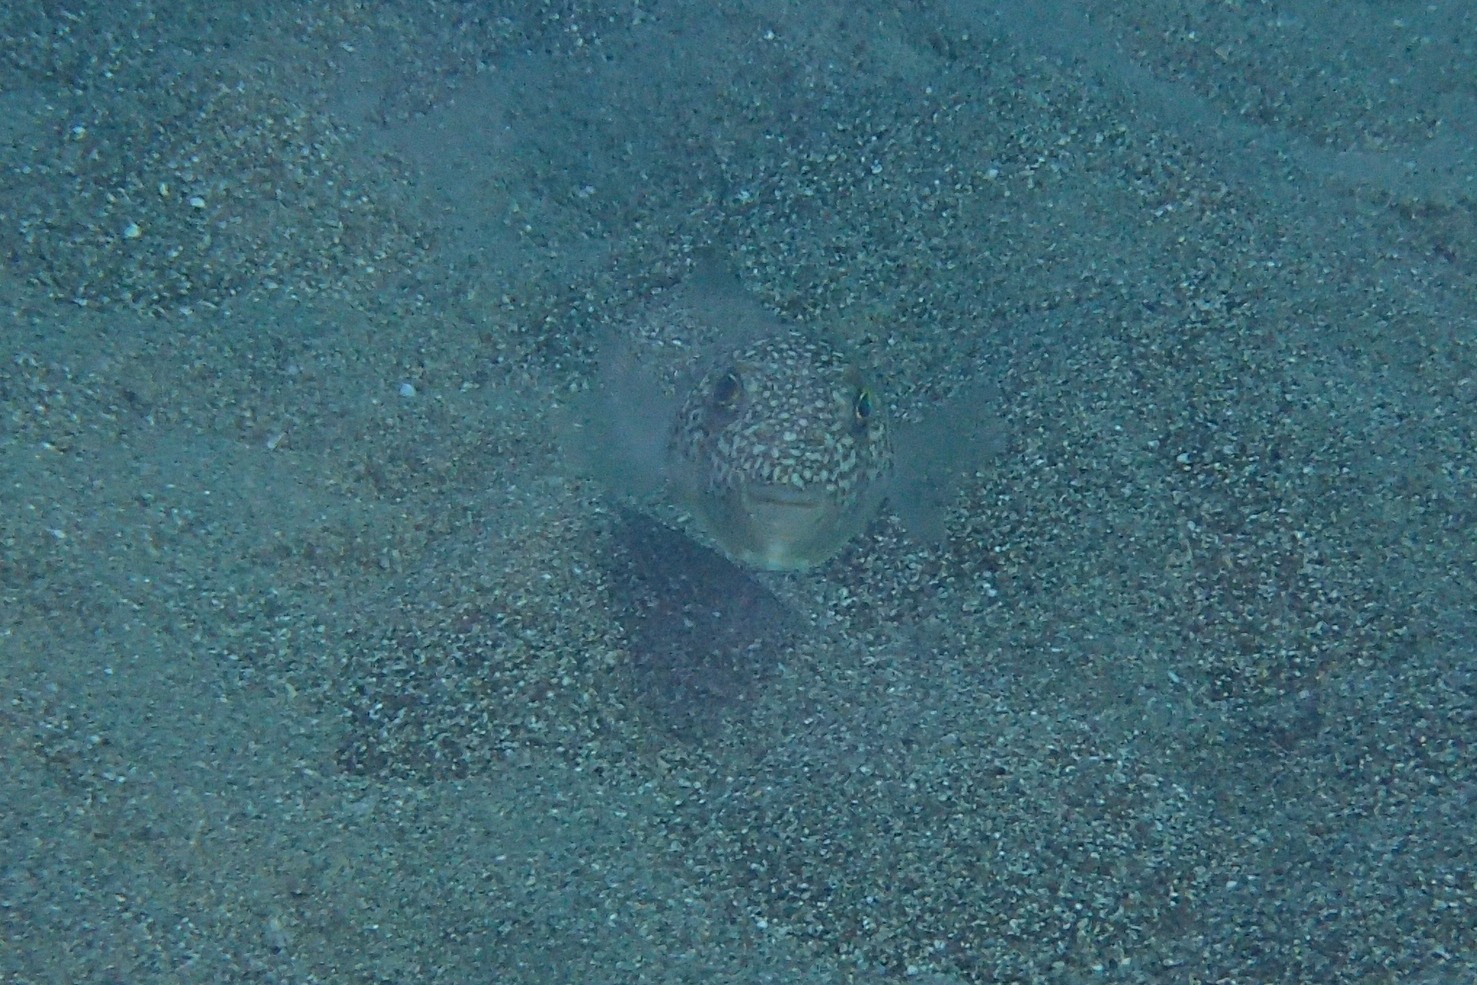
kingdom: Animalia
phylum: Chordata
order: Tetraodontiformes
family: Tetraodontidae
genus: Torquigener
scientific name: Torquigener flavimaculosus
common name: Studded pufferfish
